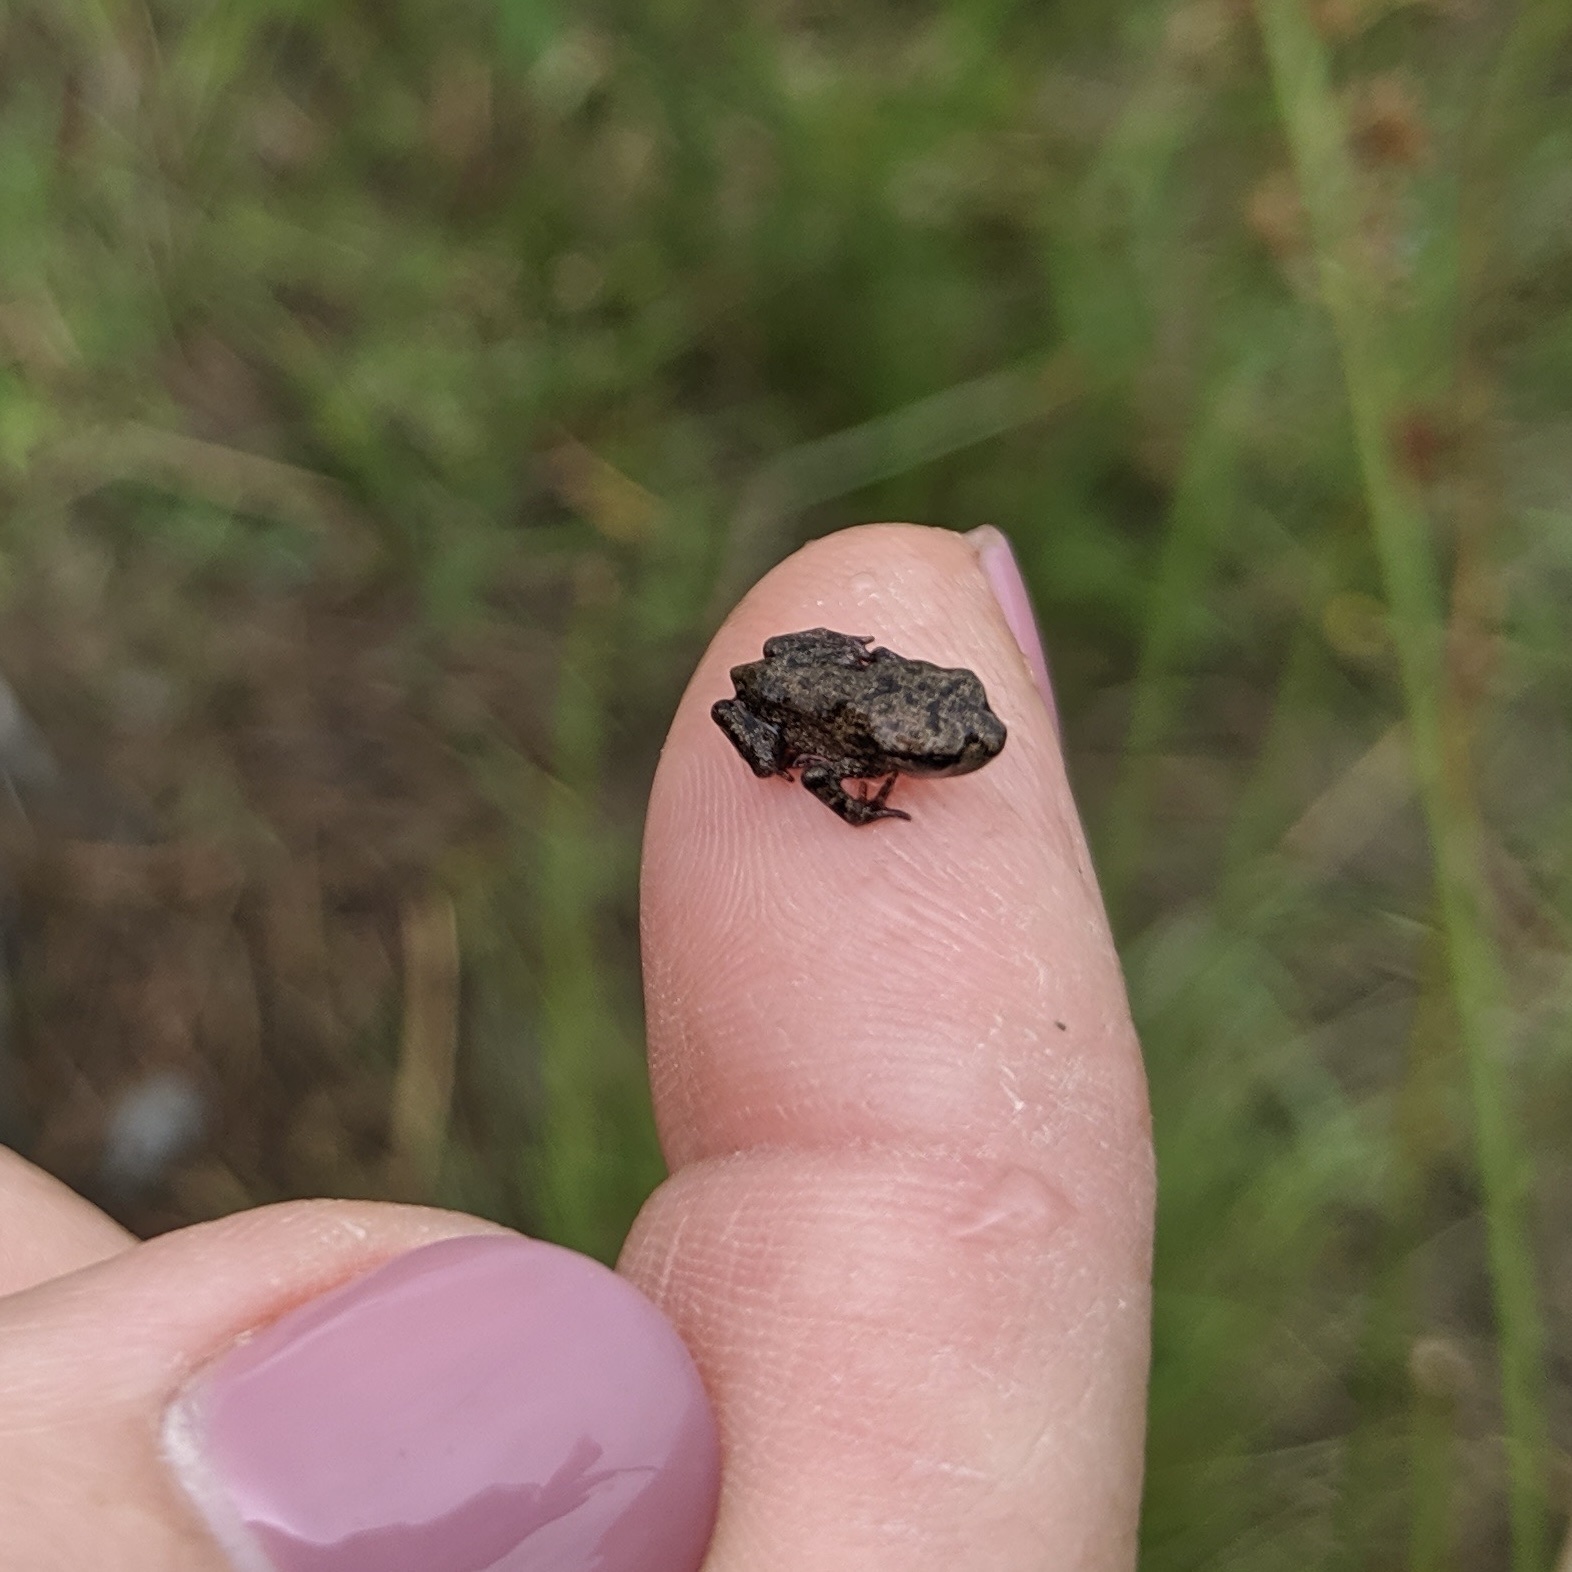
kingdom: Animalia
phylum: Chordata
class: Amphibia
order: Anura
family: Bufonidae
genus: Bufo
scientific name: Bufo bufo
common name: Common toad
